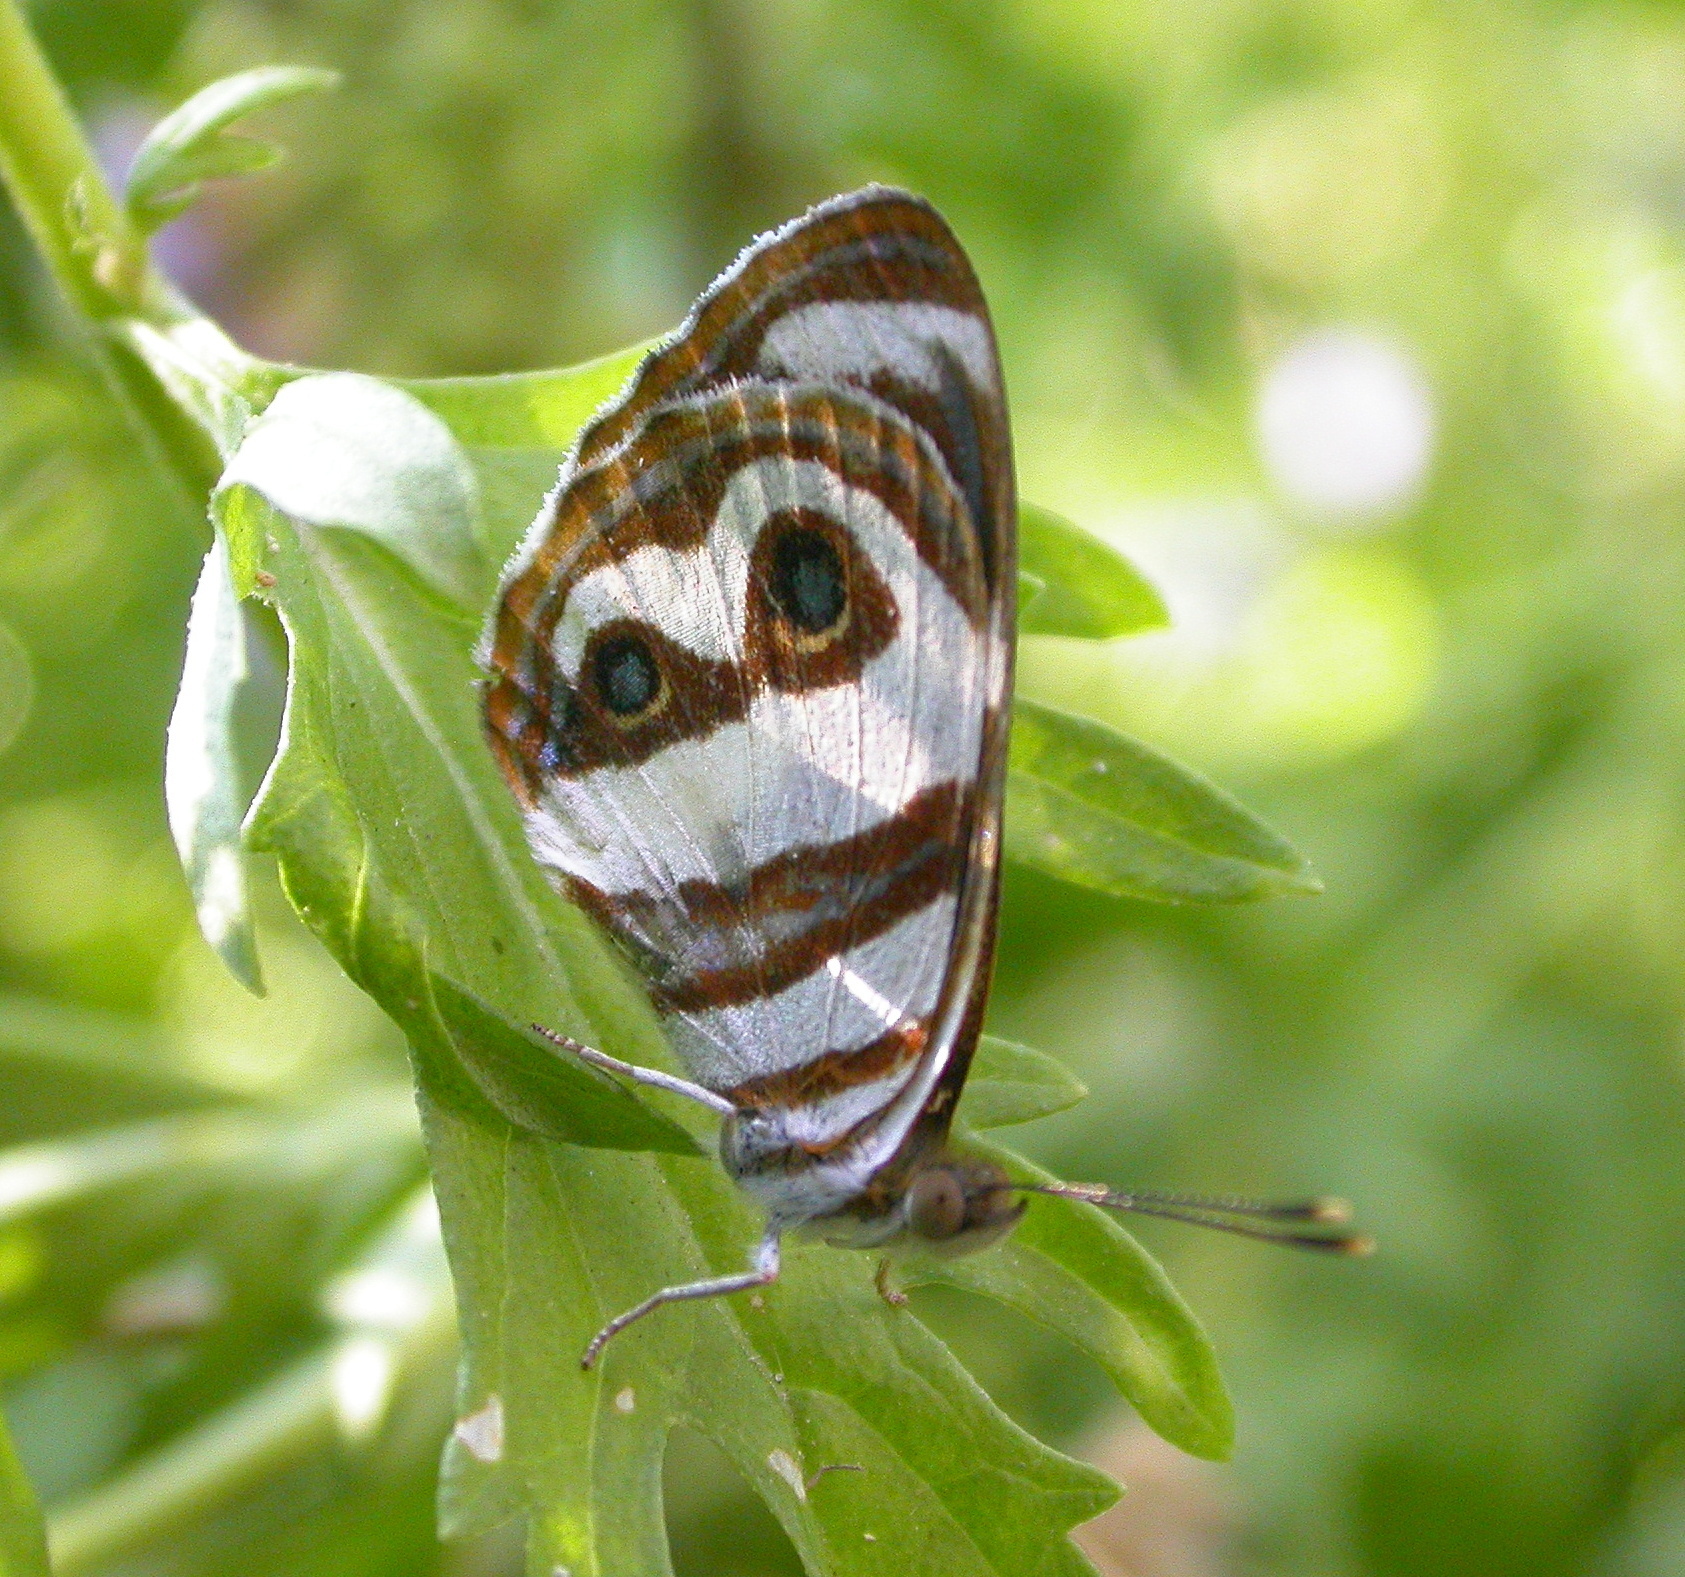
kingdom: Animalia
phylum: Arthropoda
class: Insecta
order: Lepidoptera
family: Nymphalidae
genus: Dynamine
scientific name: Dynamine dyonis
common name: Blue-eyed sailor
